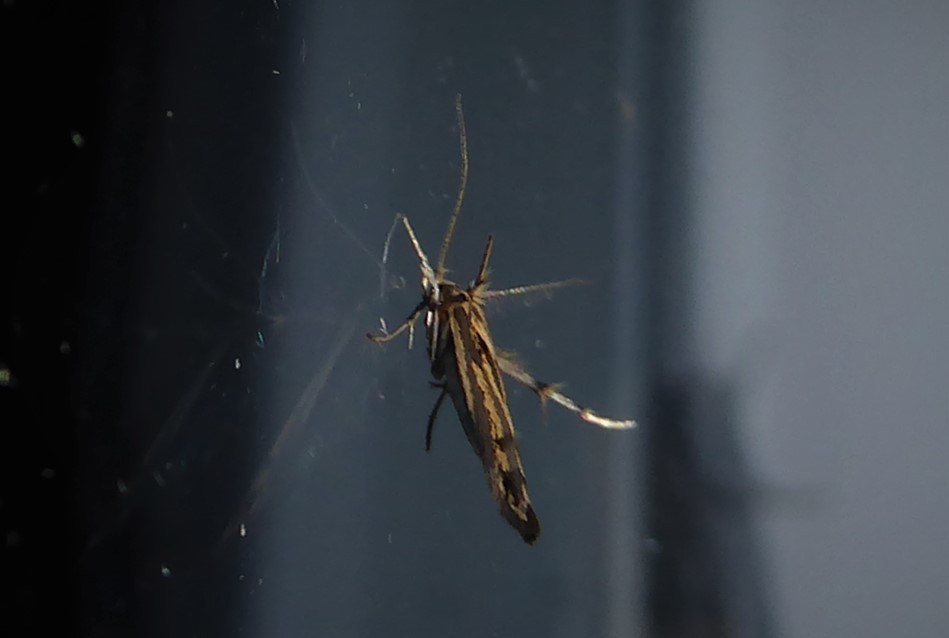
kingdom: Animalia
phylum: Arthropoda
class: Insecta
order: Lepidoptera
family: Stathmopodidae
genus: Stathmopoda
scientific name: Stathmopoda plumbiflua
